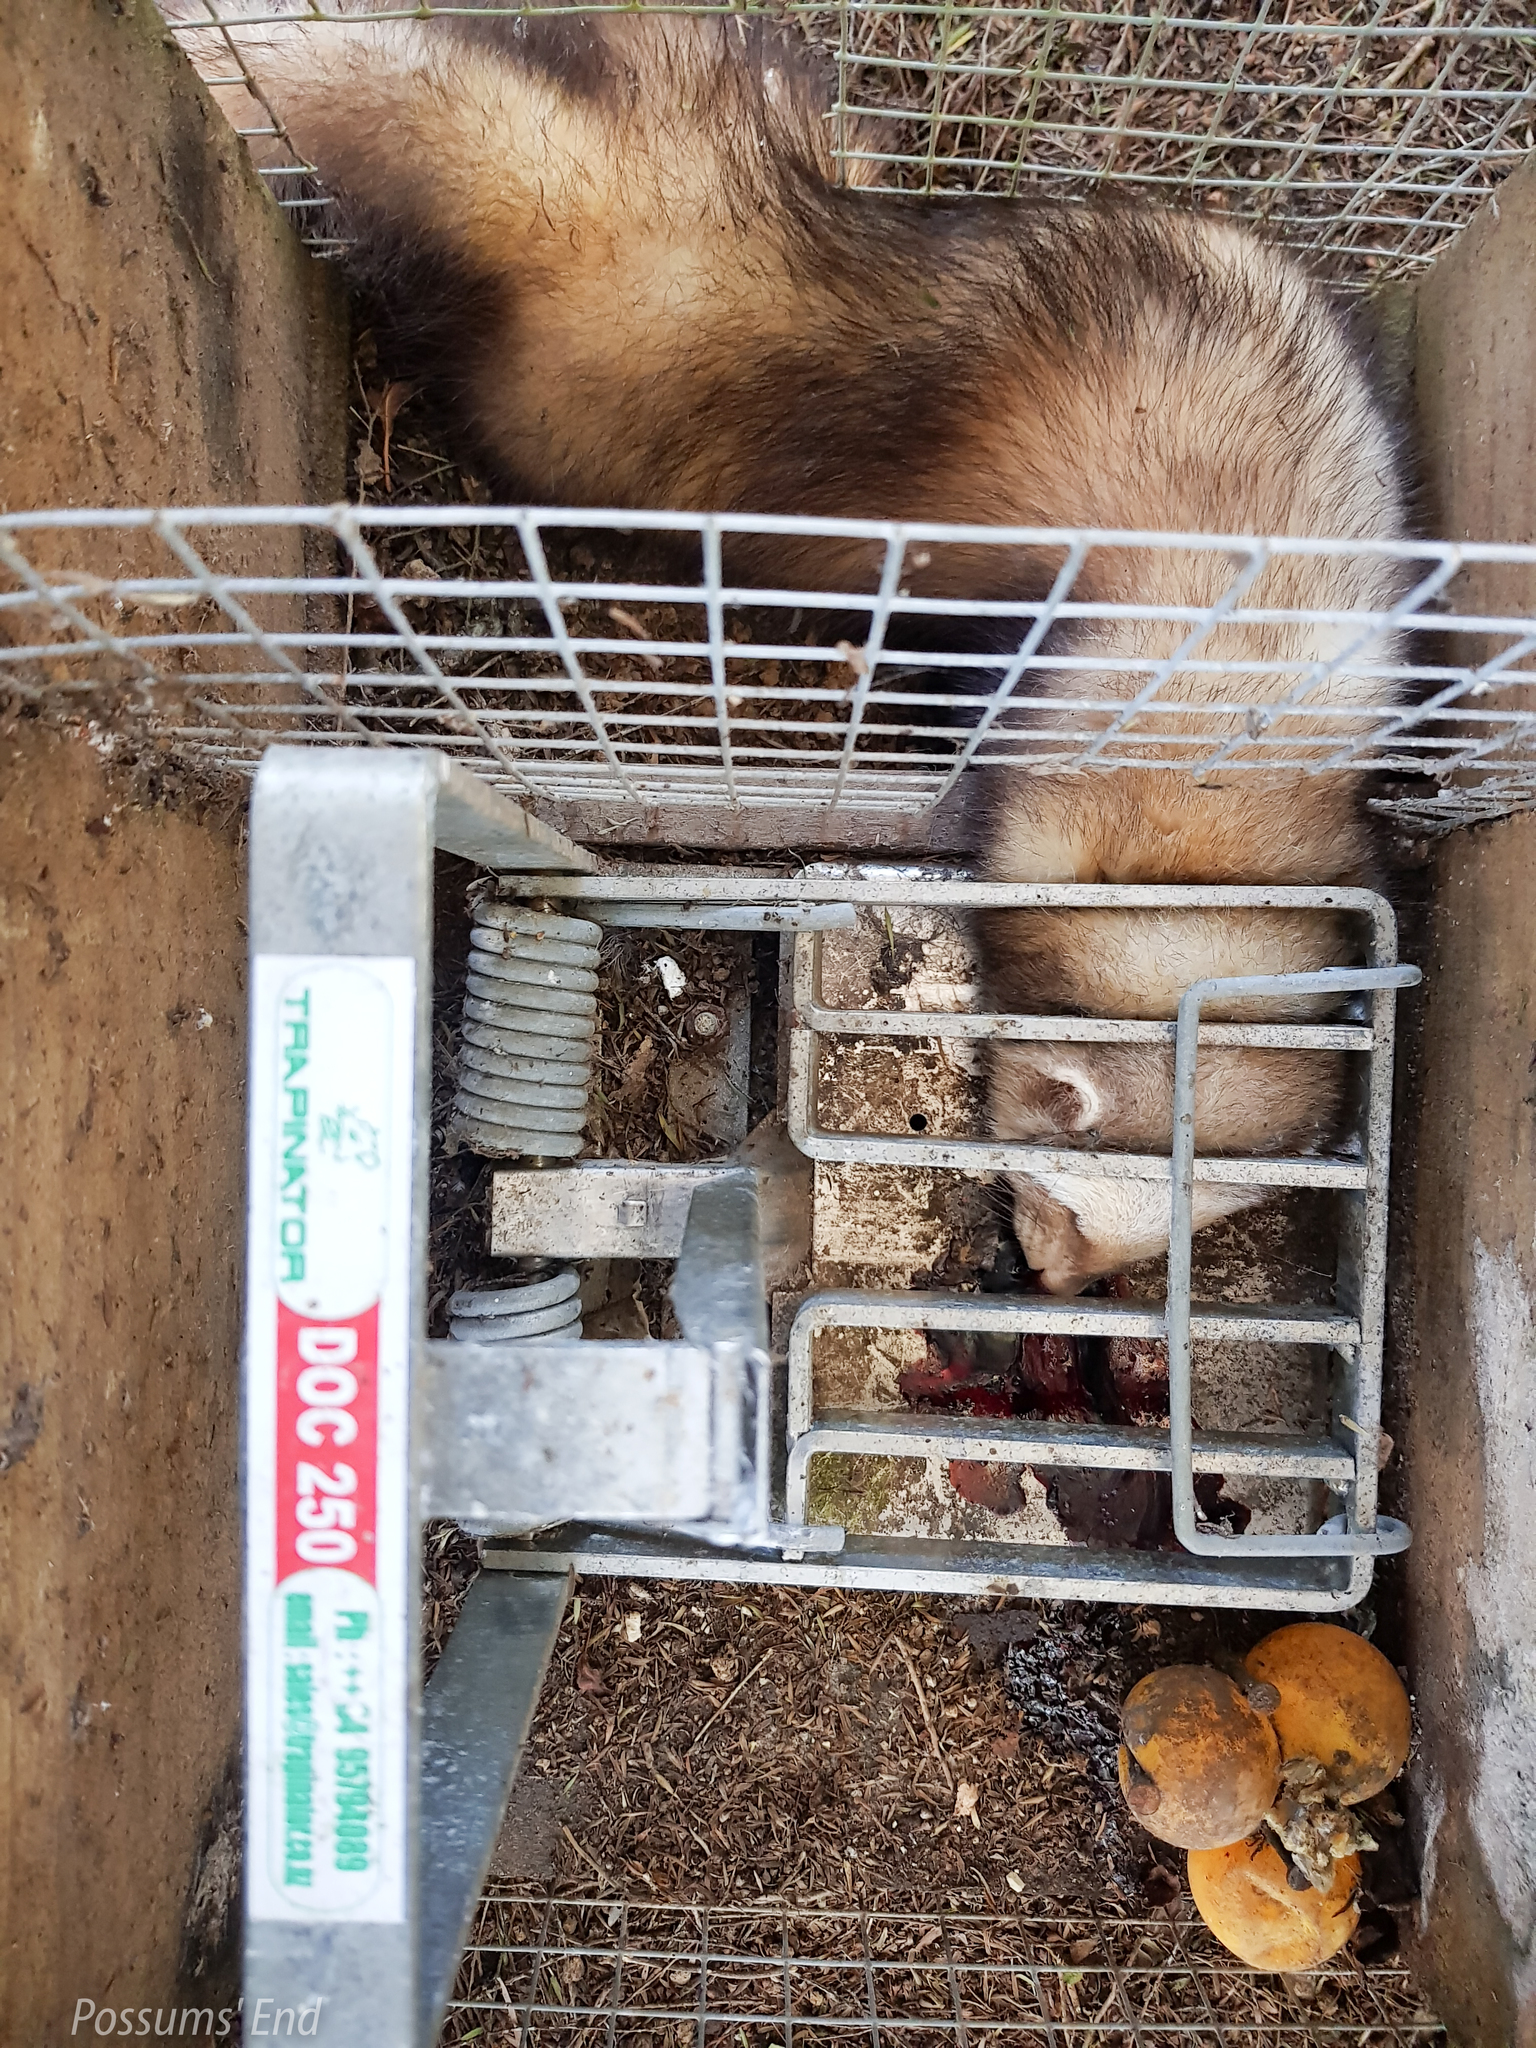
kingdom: Animalia
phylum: Chordata
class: Mammalia
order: Carnivora
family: Mustelidae
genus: Mustela
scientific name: Mustela putorius
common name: European polecat
